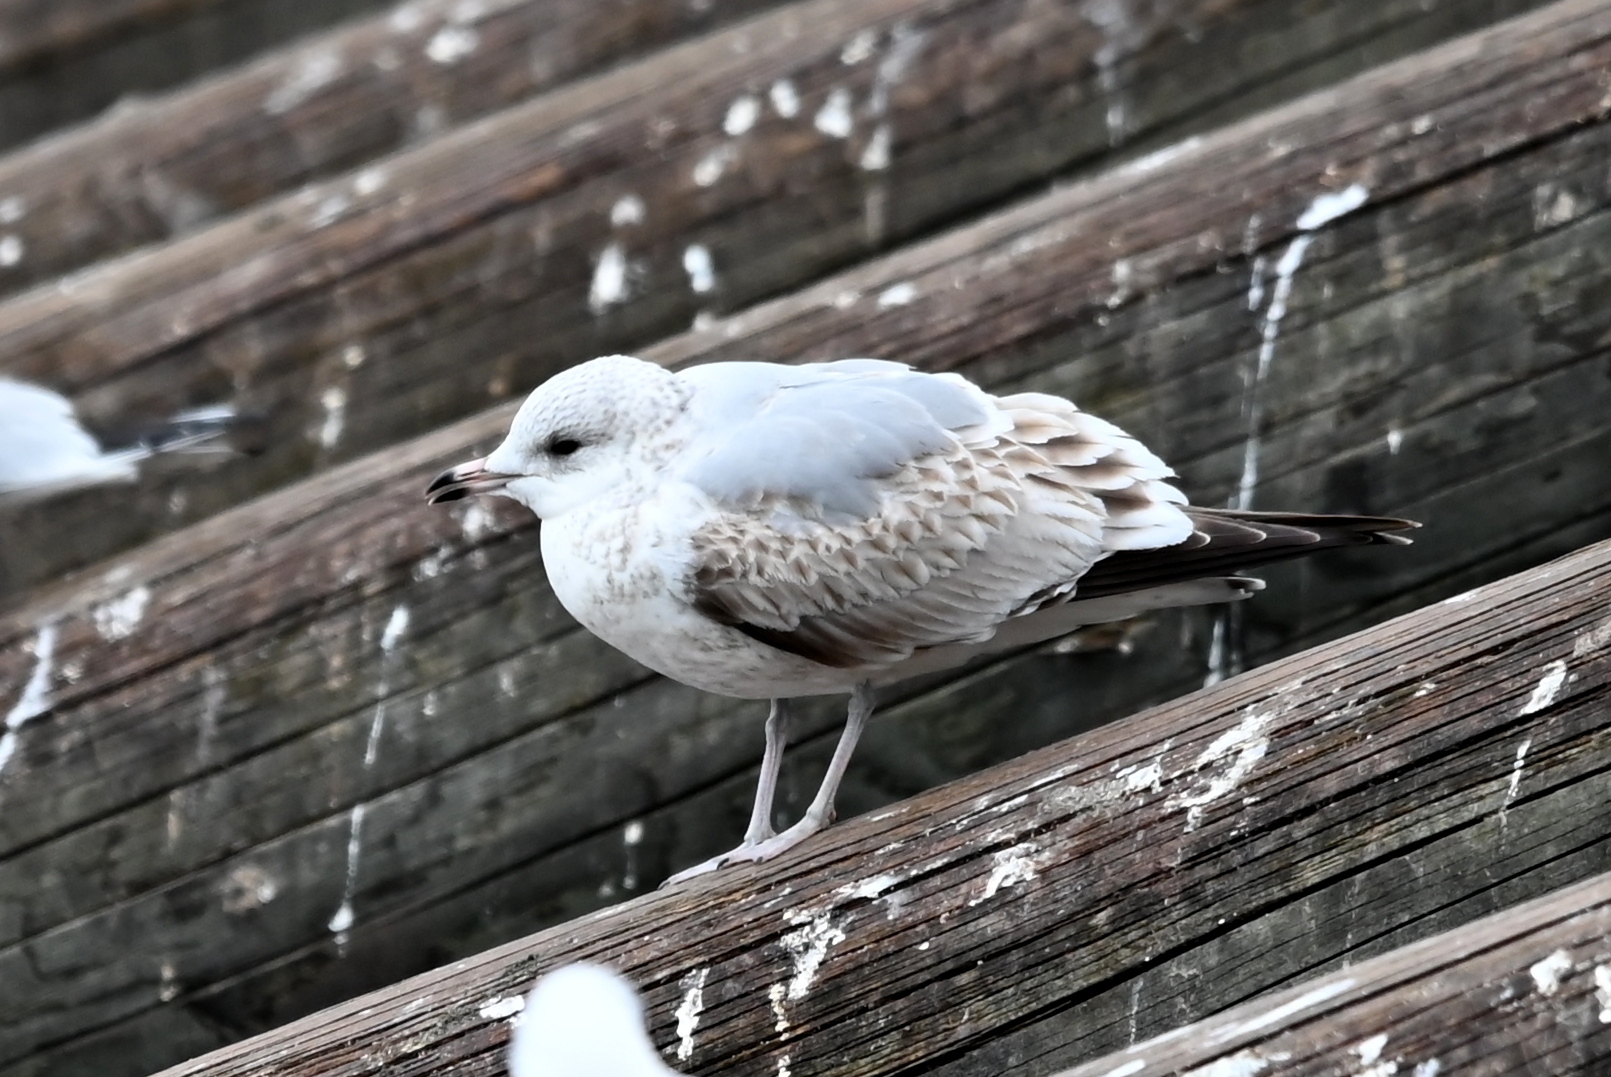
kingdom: Animalia
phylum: Chordata
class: Aves
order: Charadriiformes
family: Laridae
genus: Larus
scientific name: Larus canus
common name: Mew gull
